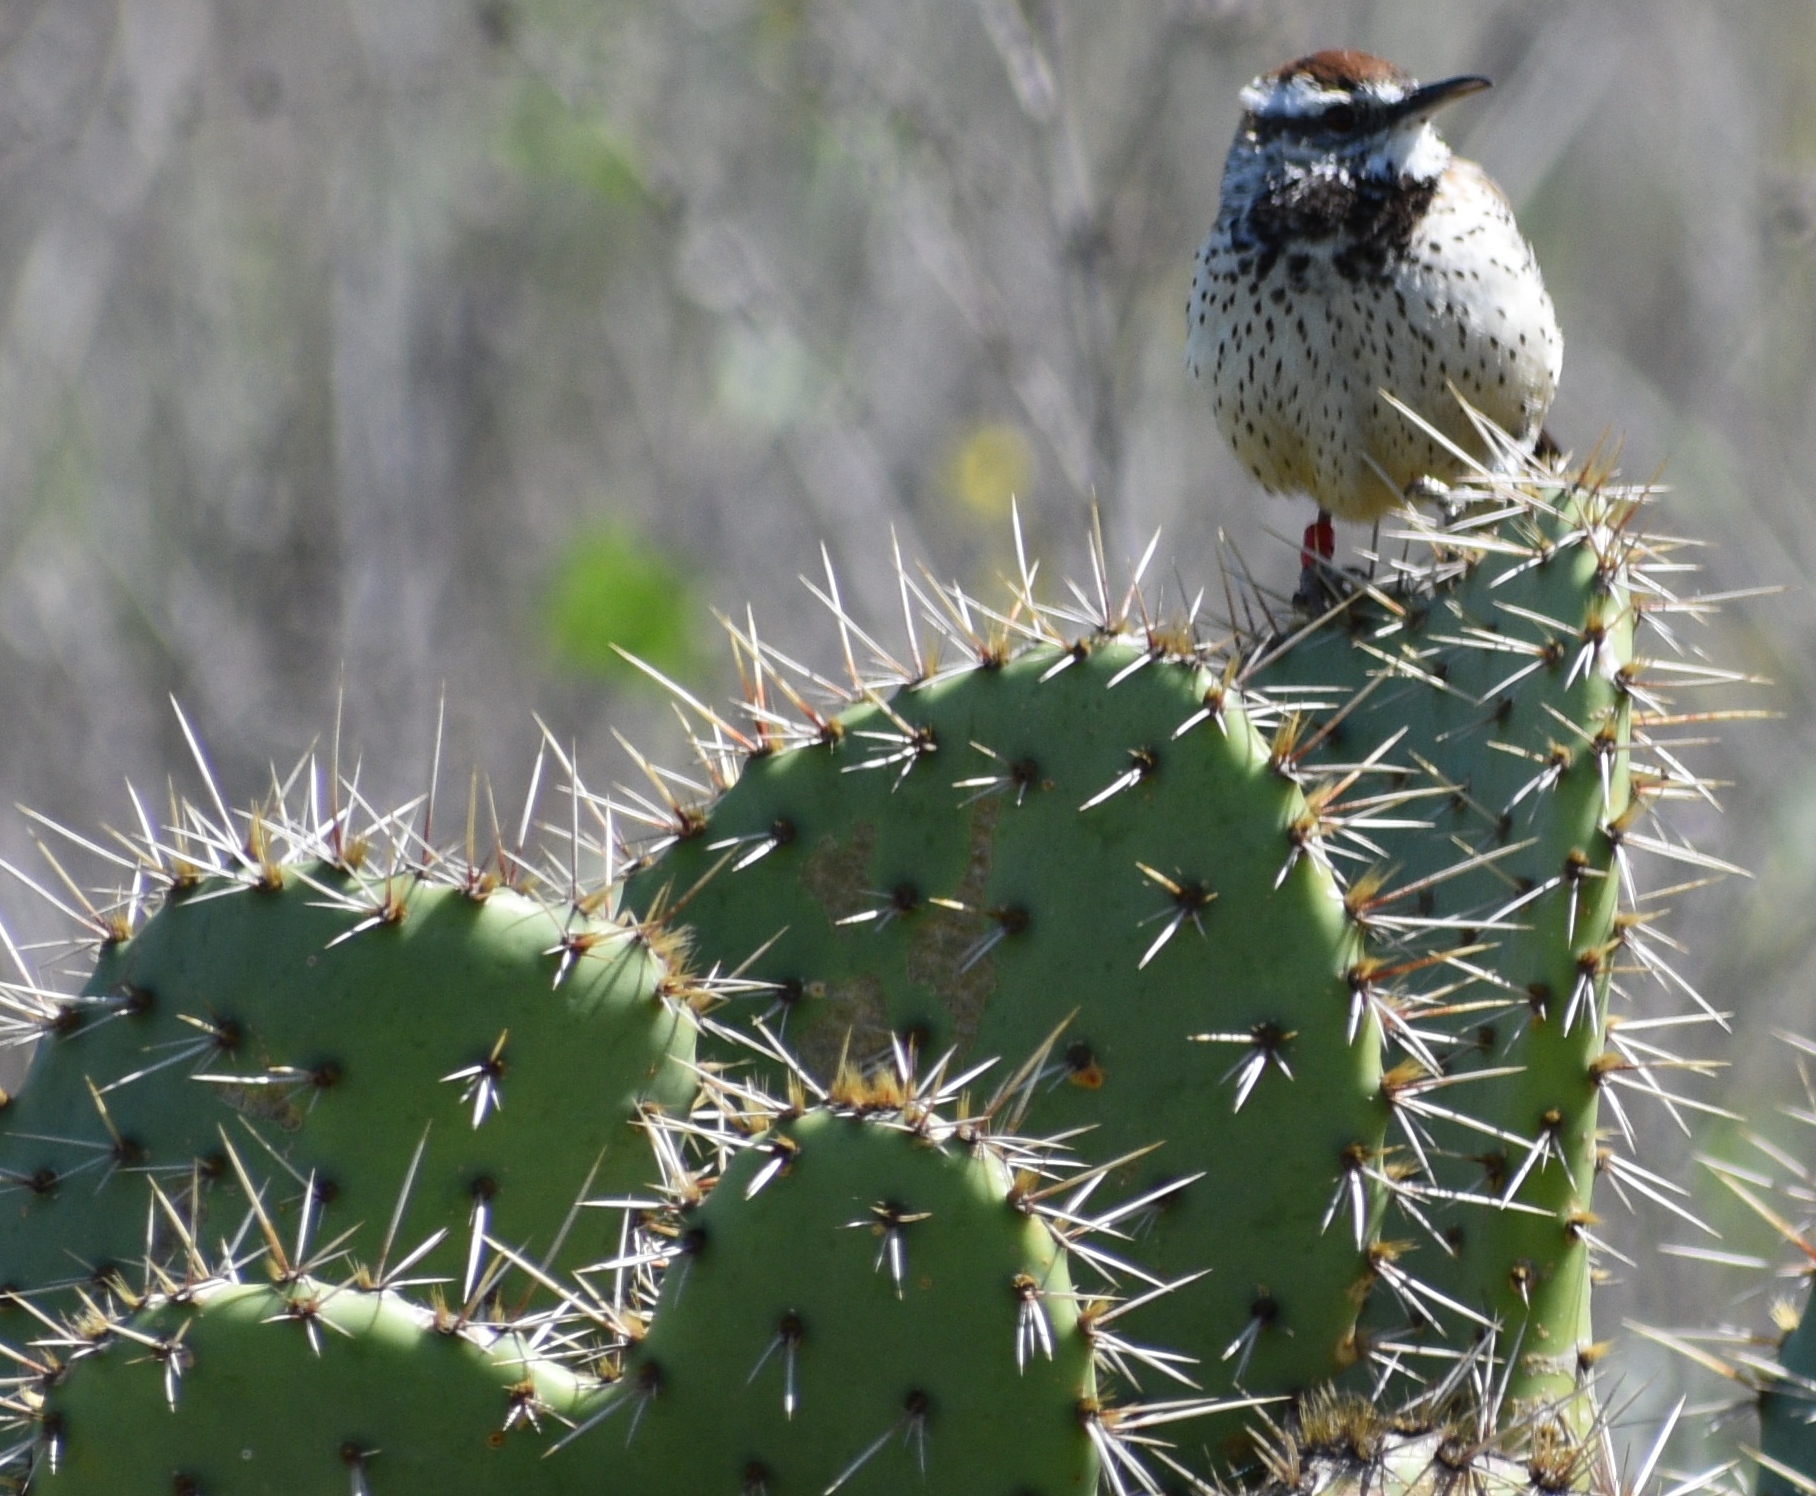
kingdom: Animalia
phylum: Chordata
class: Aves
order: Passeriformes
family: Troglodytidae
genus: Campylorhynchus
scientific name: Campylorhynchus brunneicapillus
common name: Cactus wren
